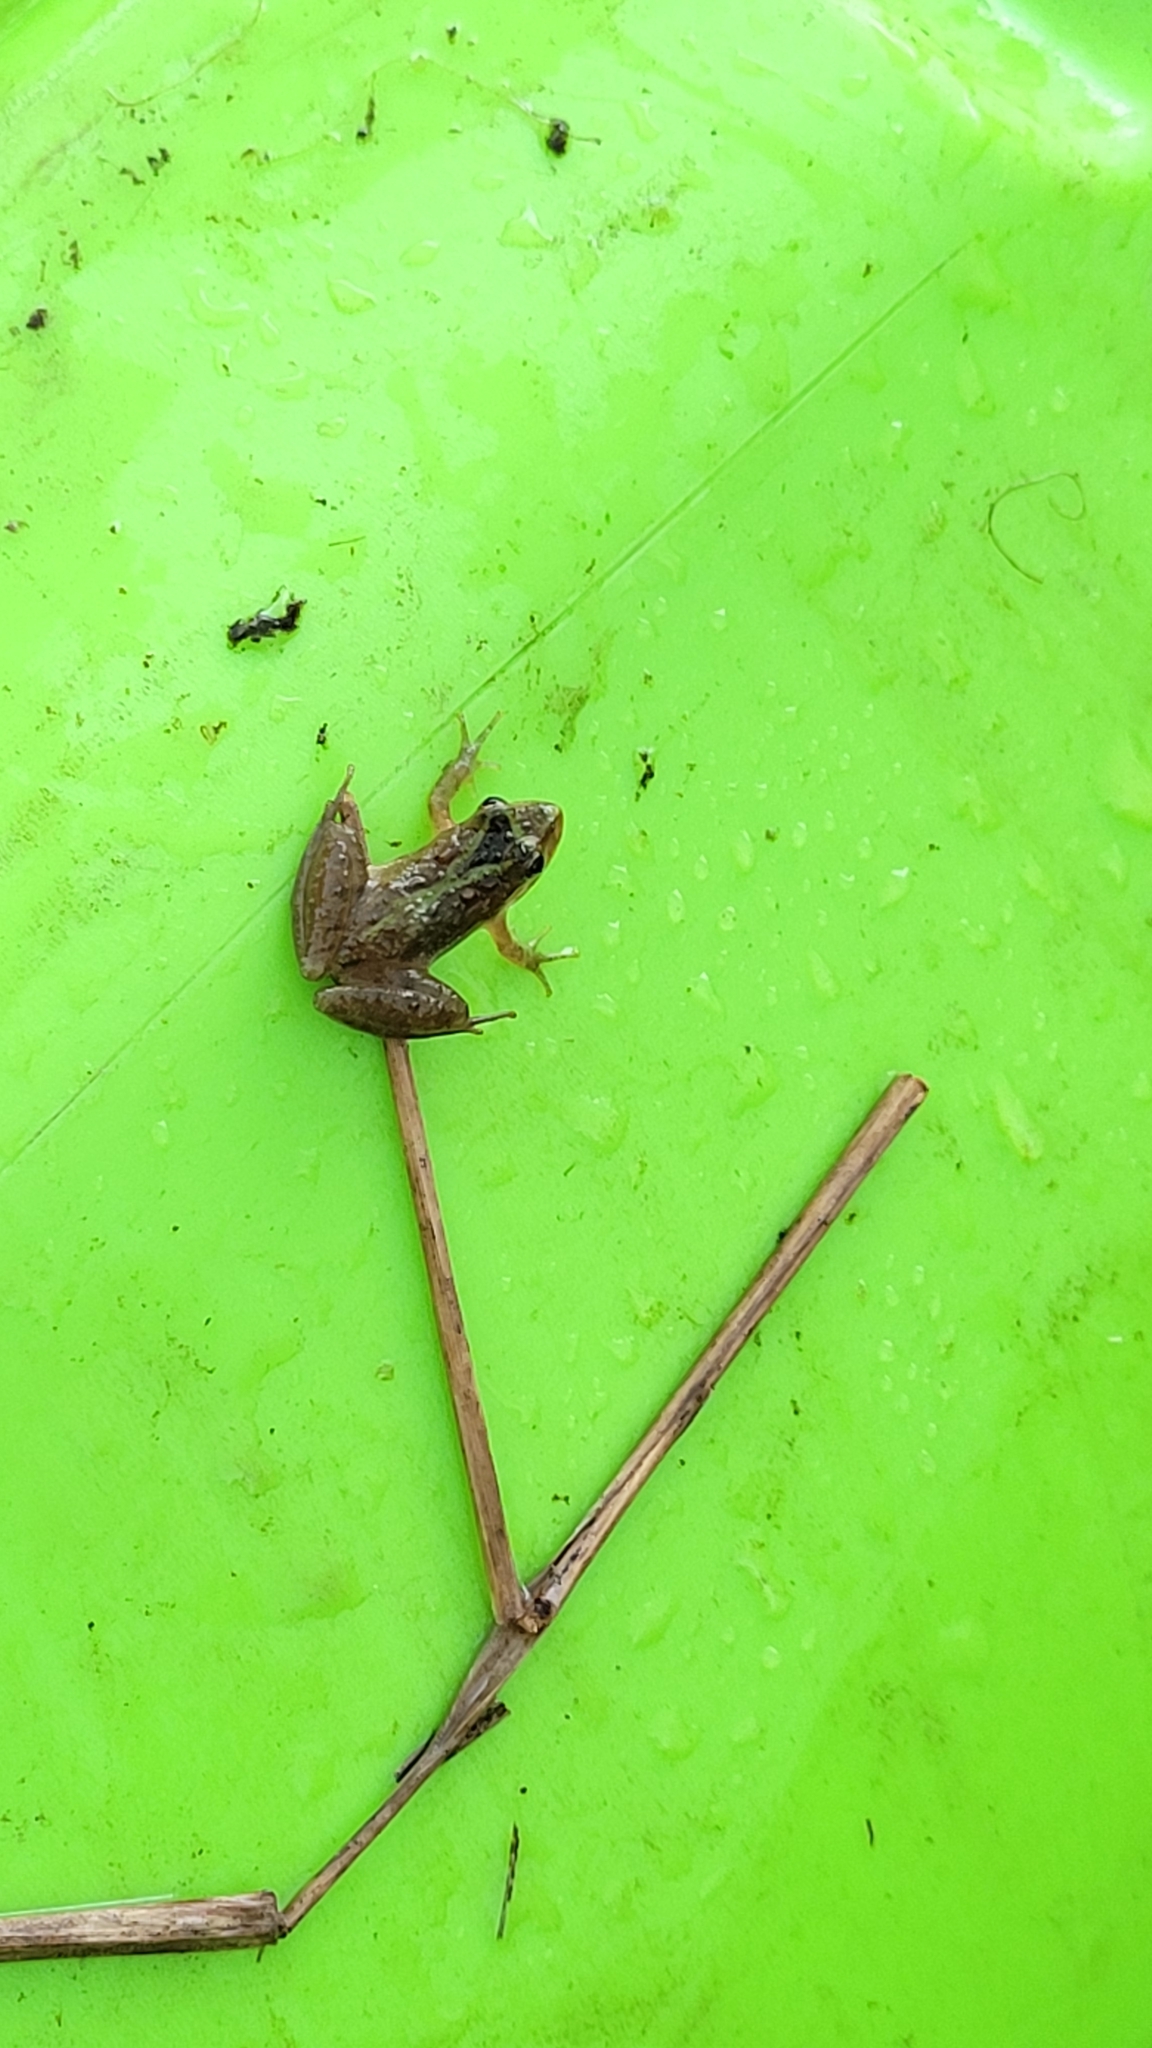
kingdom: Animalia
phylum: Chordata
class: Amphibia
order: Anura
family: Hylidae
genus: Acris
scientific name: Acris gryllus
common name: Southern cricket frog
